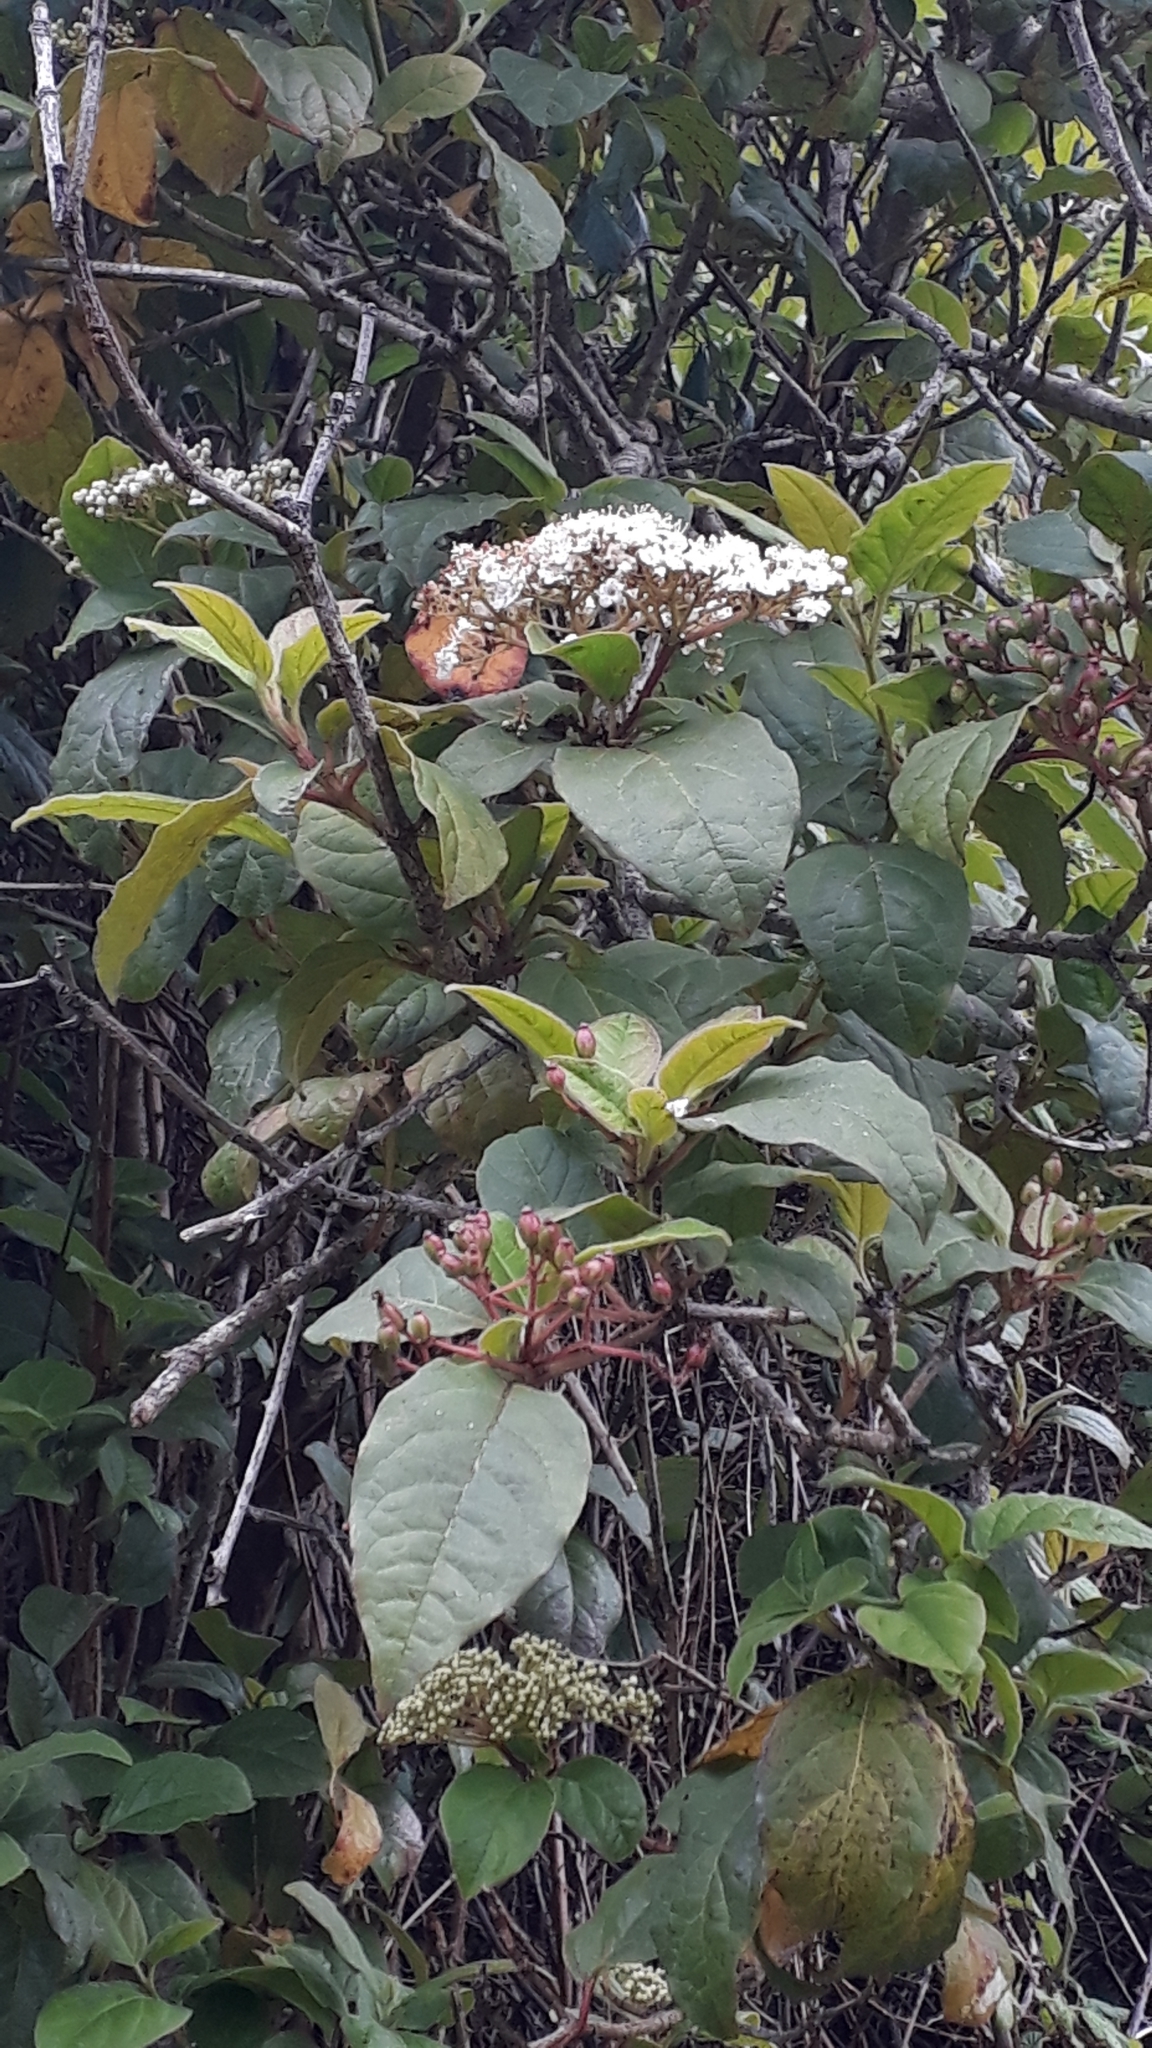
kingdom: Plantae
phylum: Tracheophyta
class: Magnoliopsida
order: Dipsacales
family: Viburnaceae
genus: Viburnum
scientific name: Viburnum rugosum
